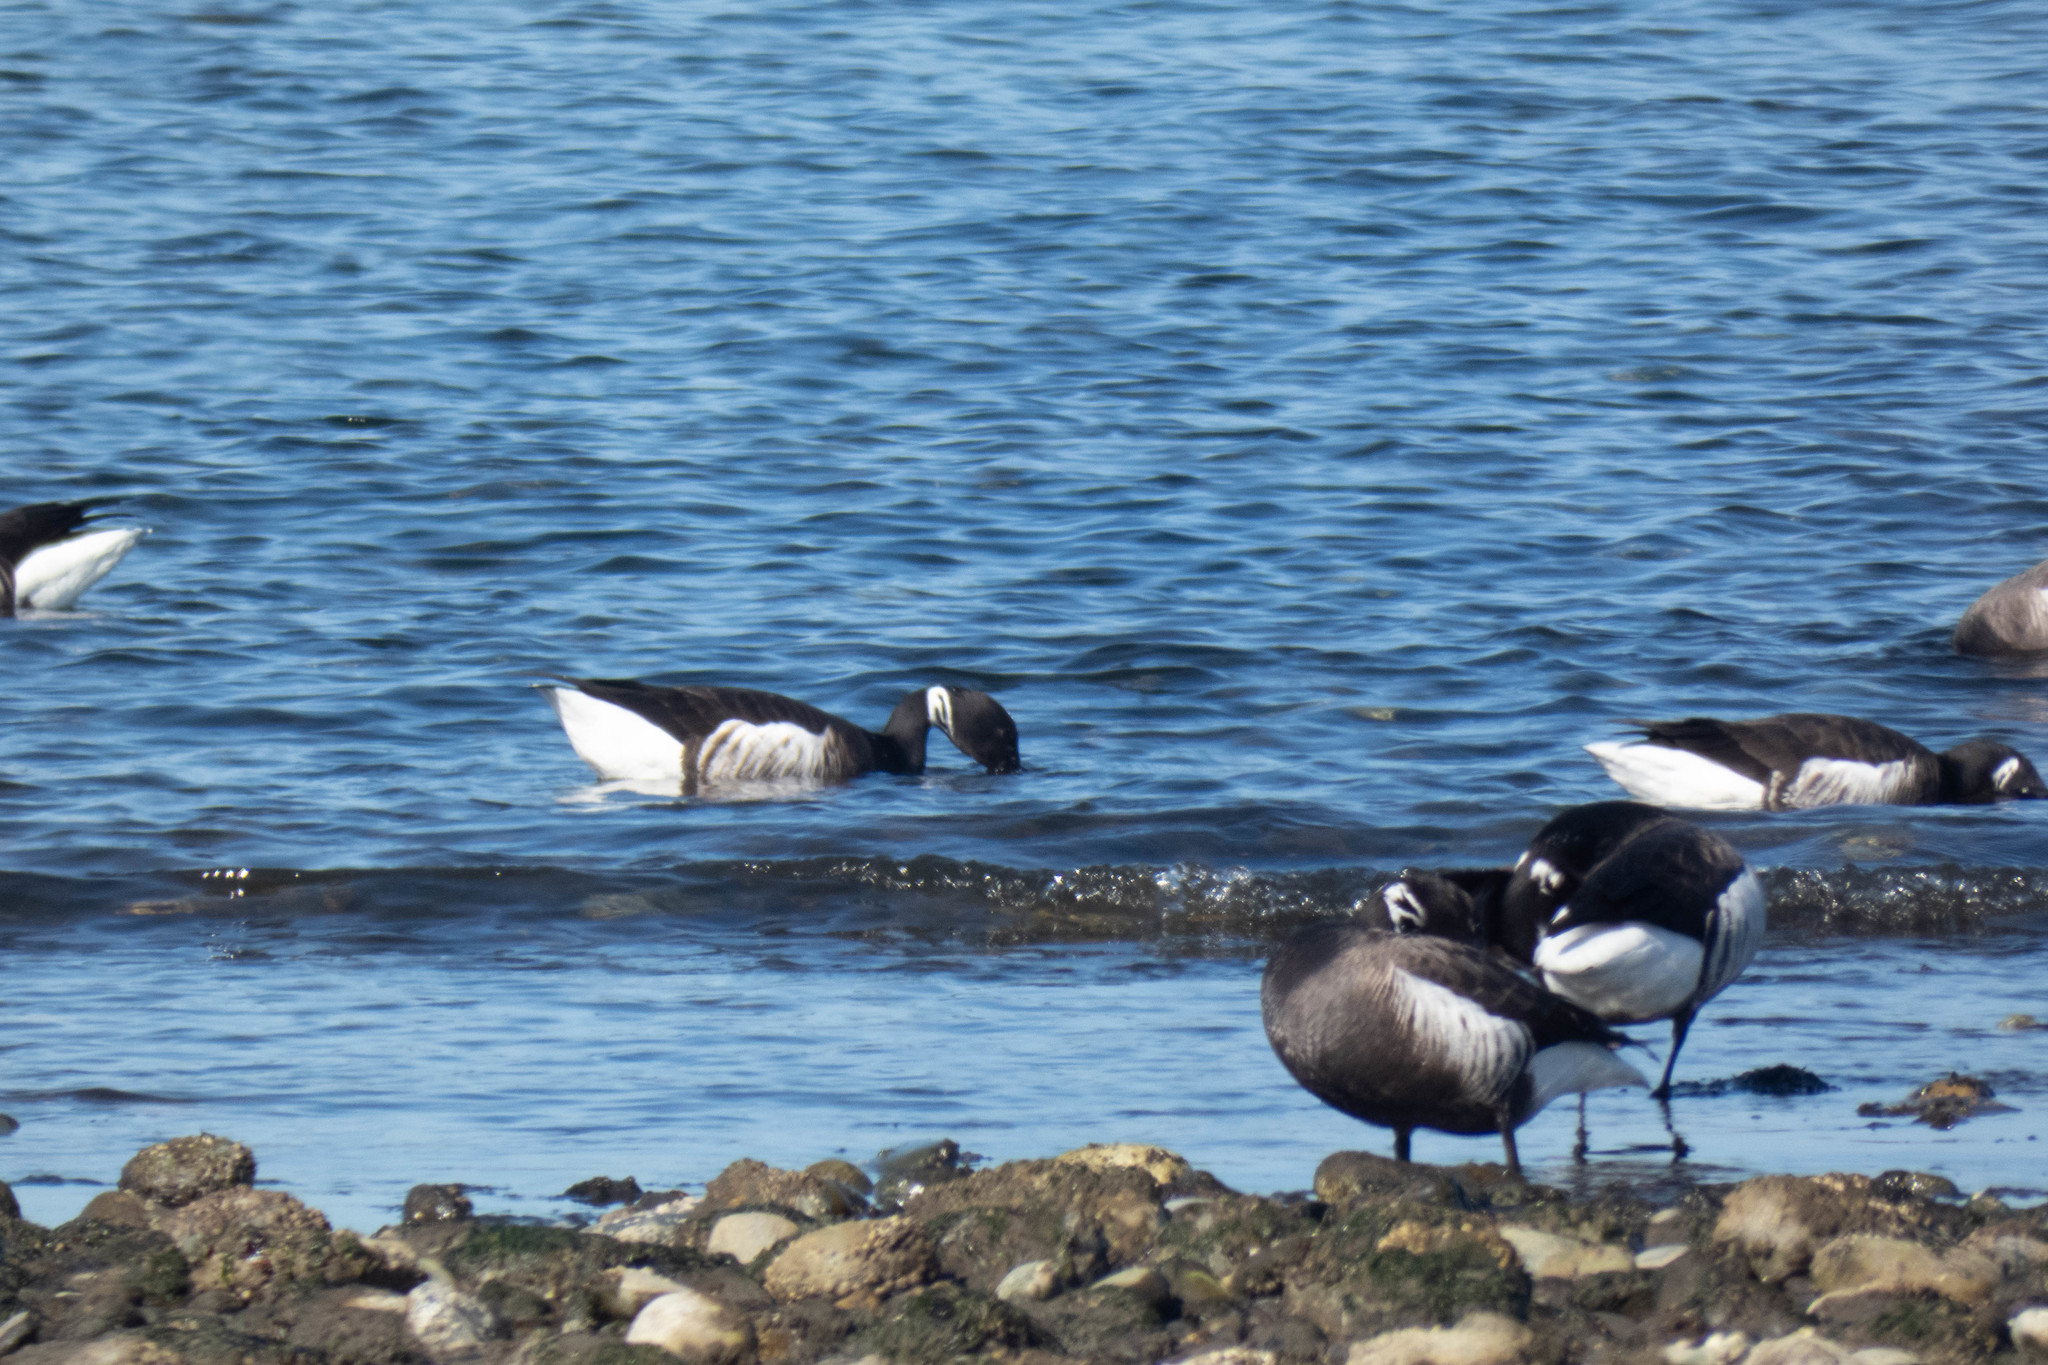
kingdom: Animalia
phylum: Chordata
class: Aves
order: Anseriformes
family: Anatidae
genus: Branta
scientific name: Branta bernicla
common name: Brant goose
